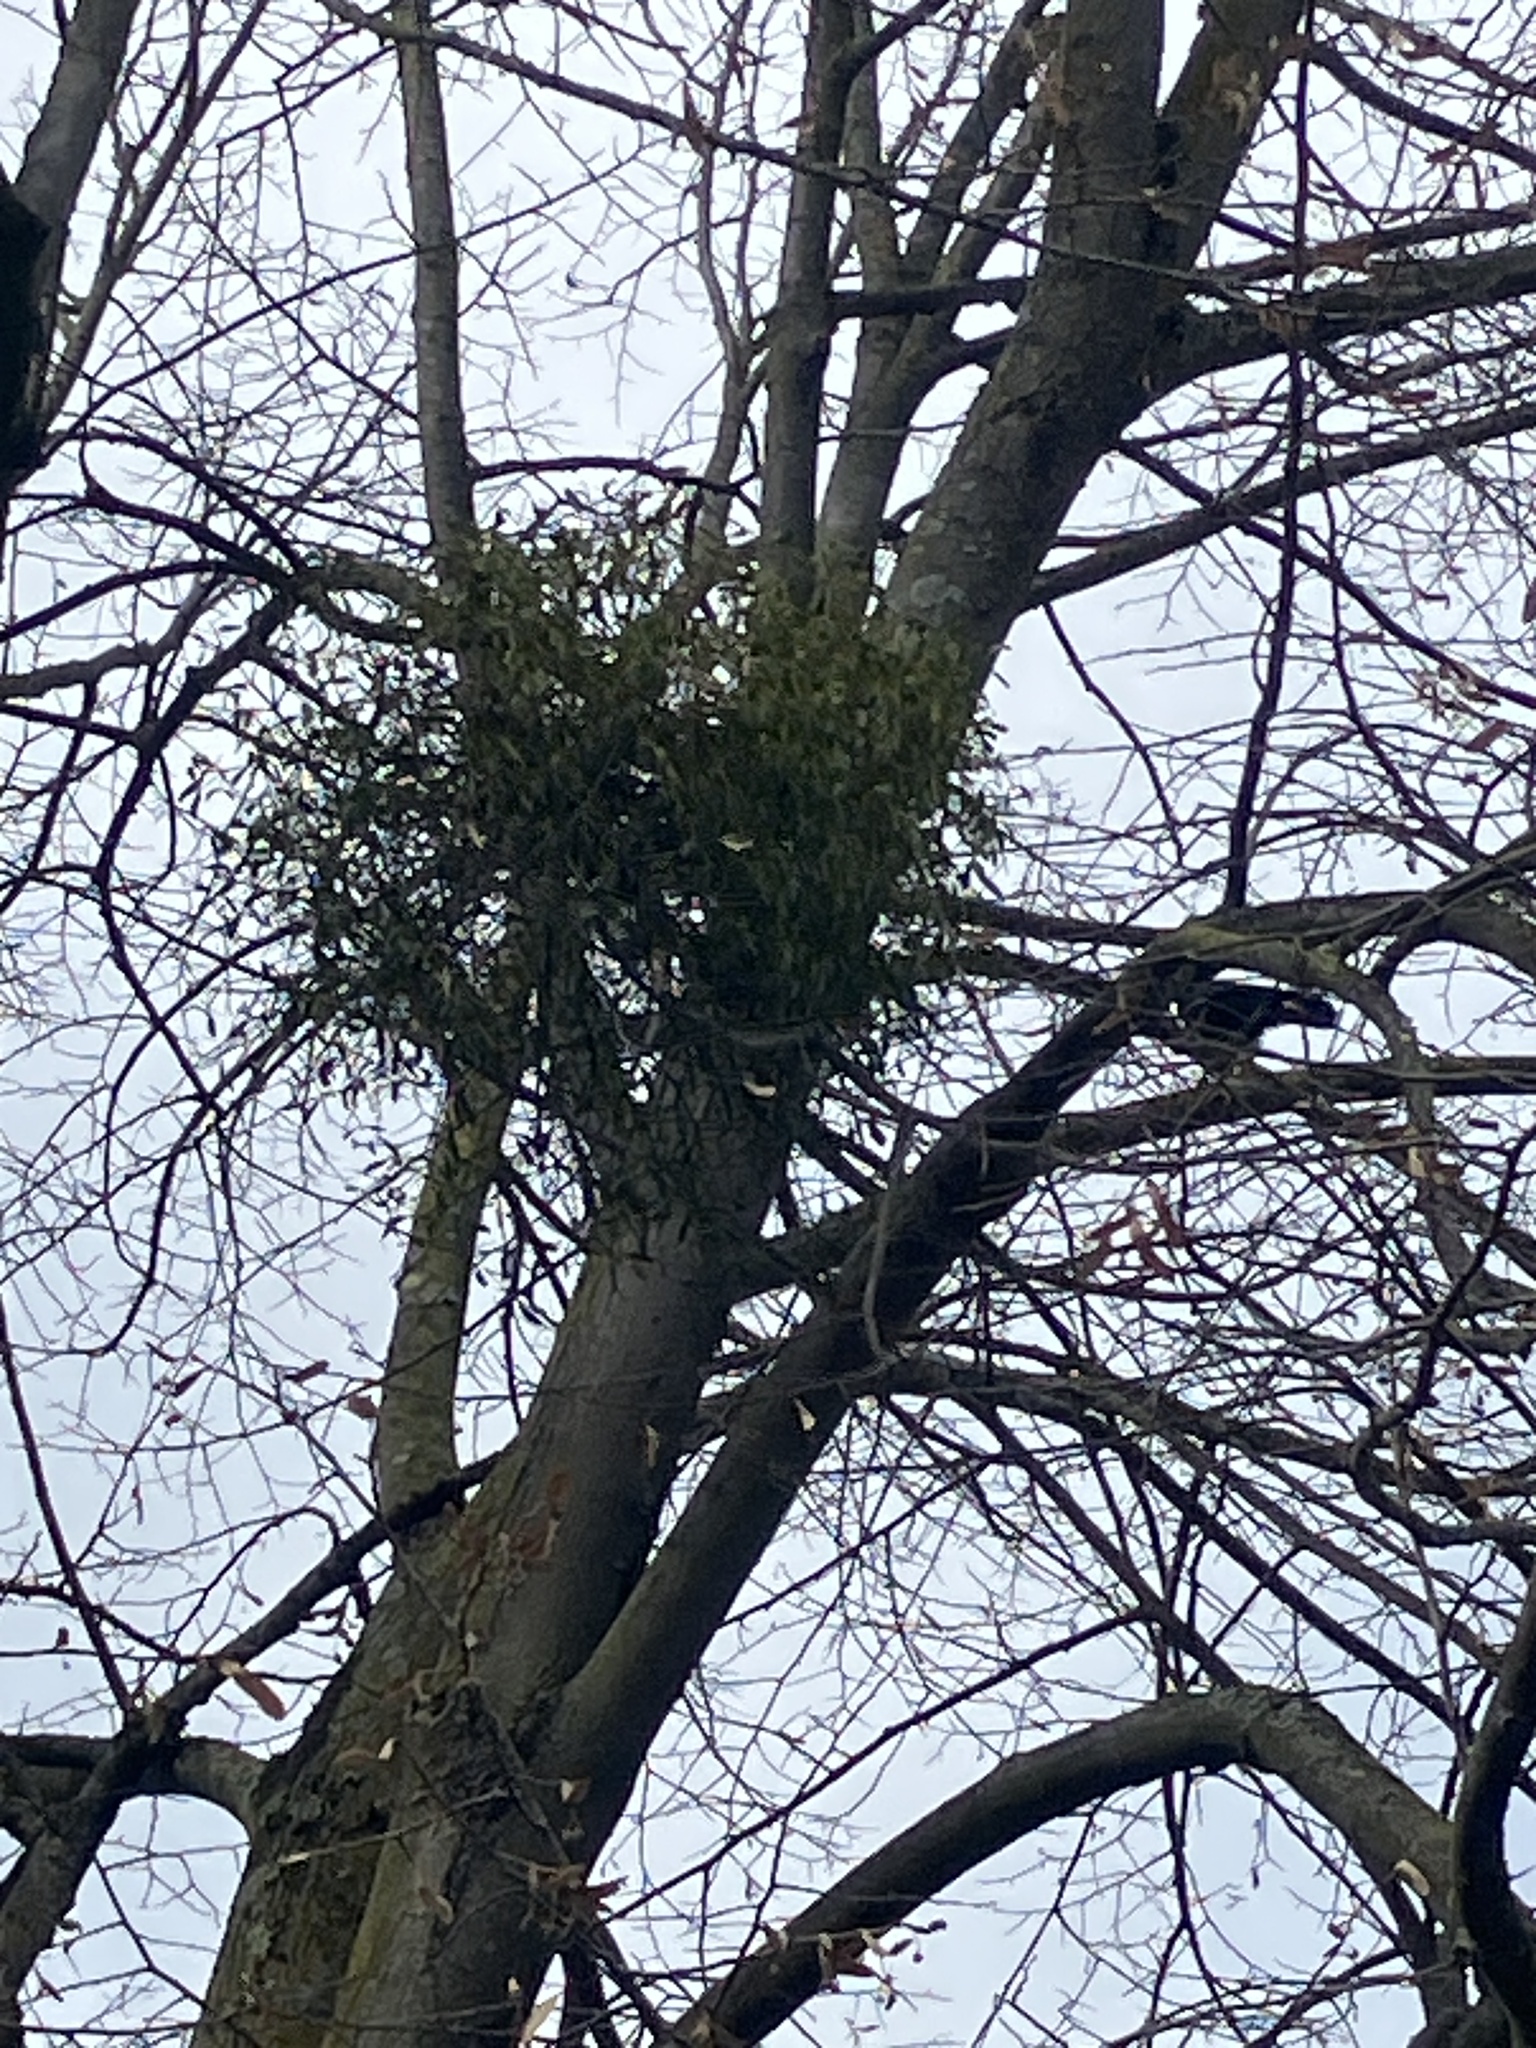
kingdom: Plantae
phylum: Tracheophyta
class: Magnoliopsida
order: Santalales
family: Viscaceae
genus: Viscum
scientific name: Viscum album
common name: Mistletoe
